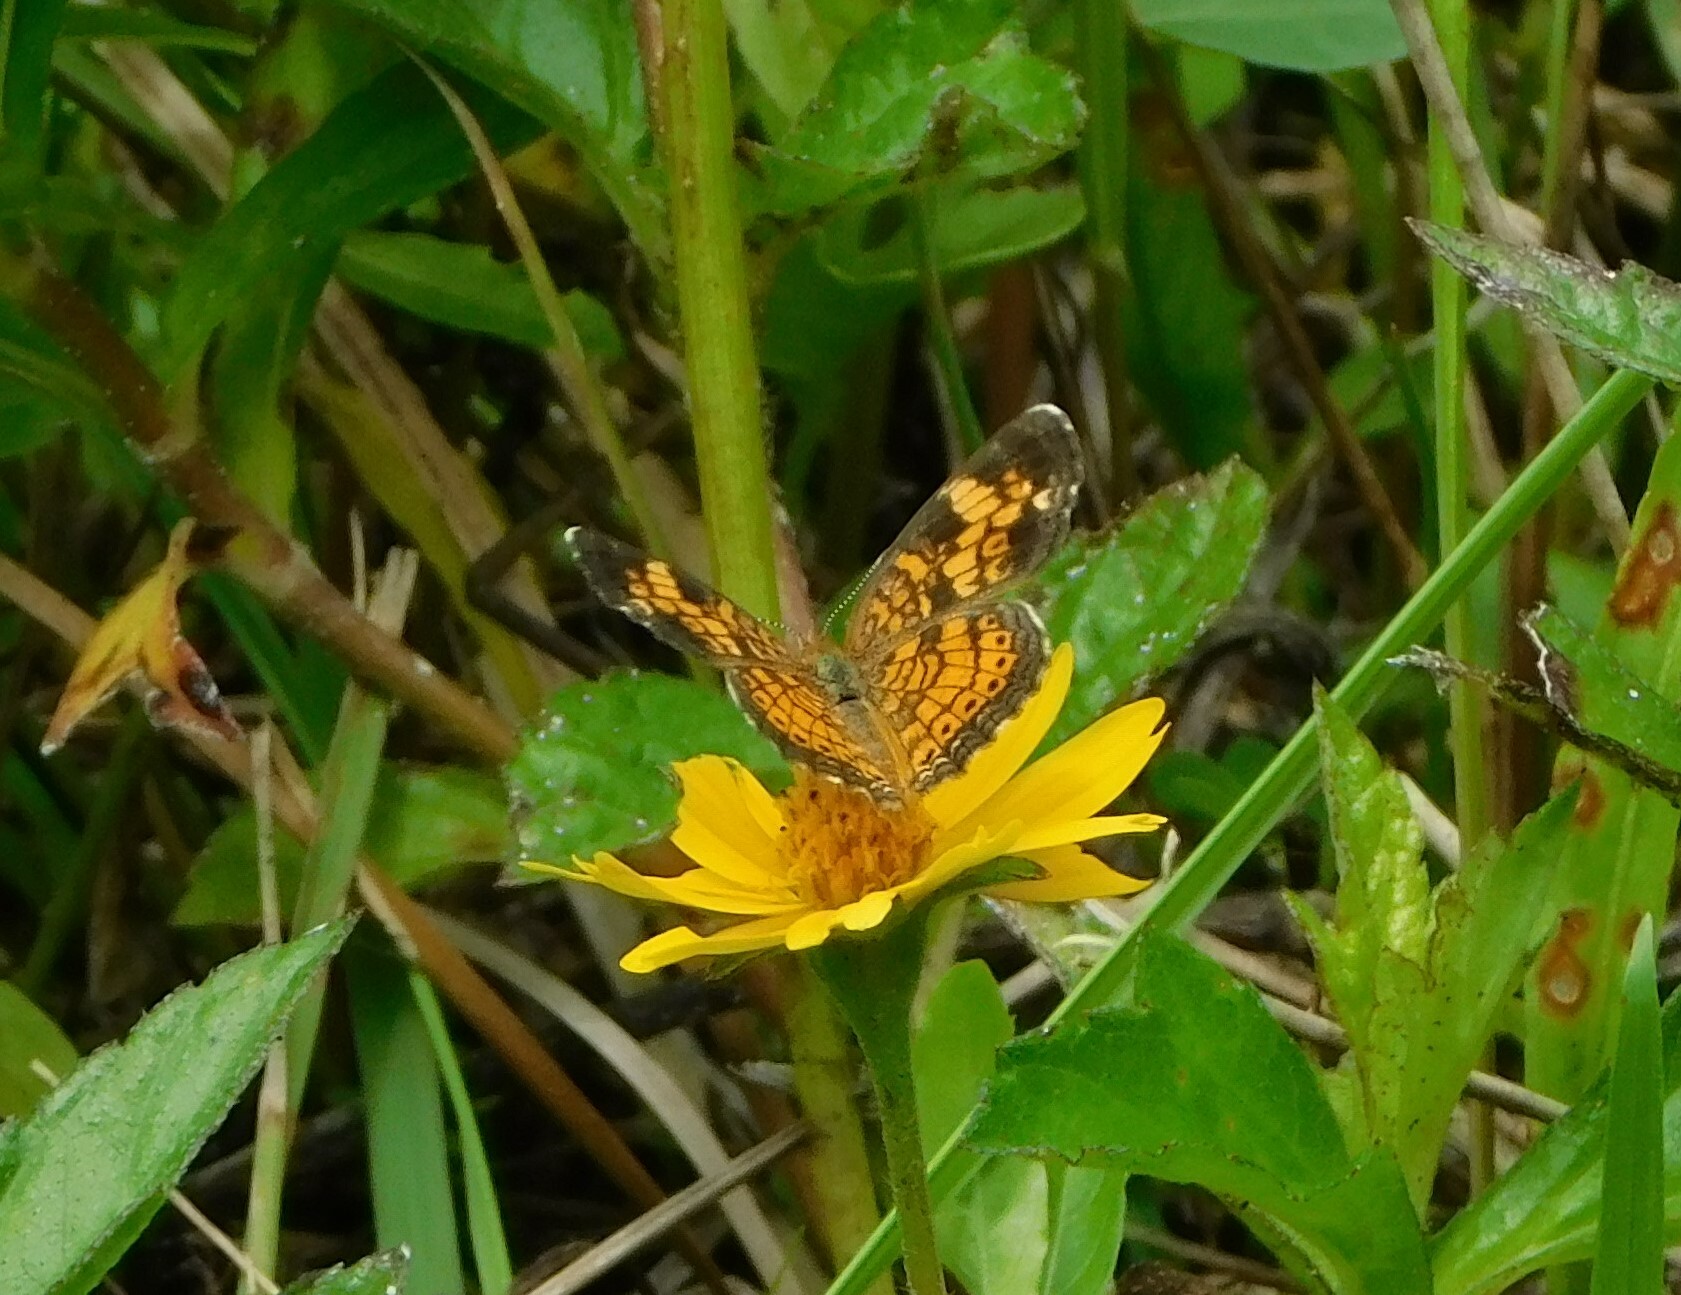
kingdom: Animalia
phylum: Arthropoda
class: Insecta
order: Lepidoptera
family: Nymphalidae
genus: Phyciodes
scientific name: Phyciodes tharos
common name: Pearl crescent
